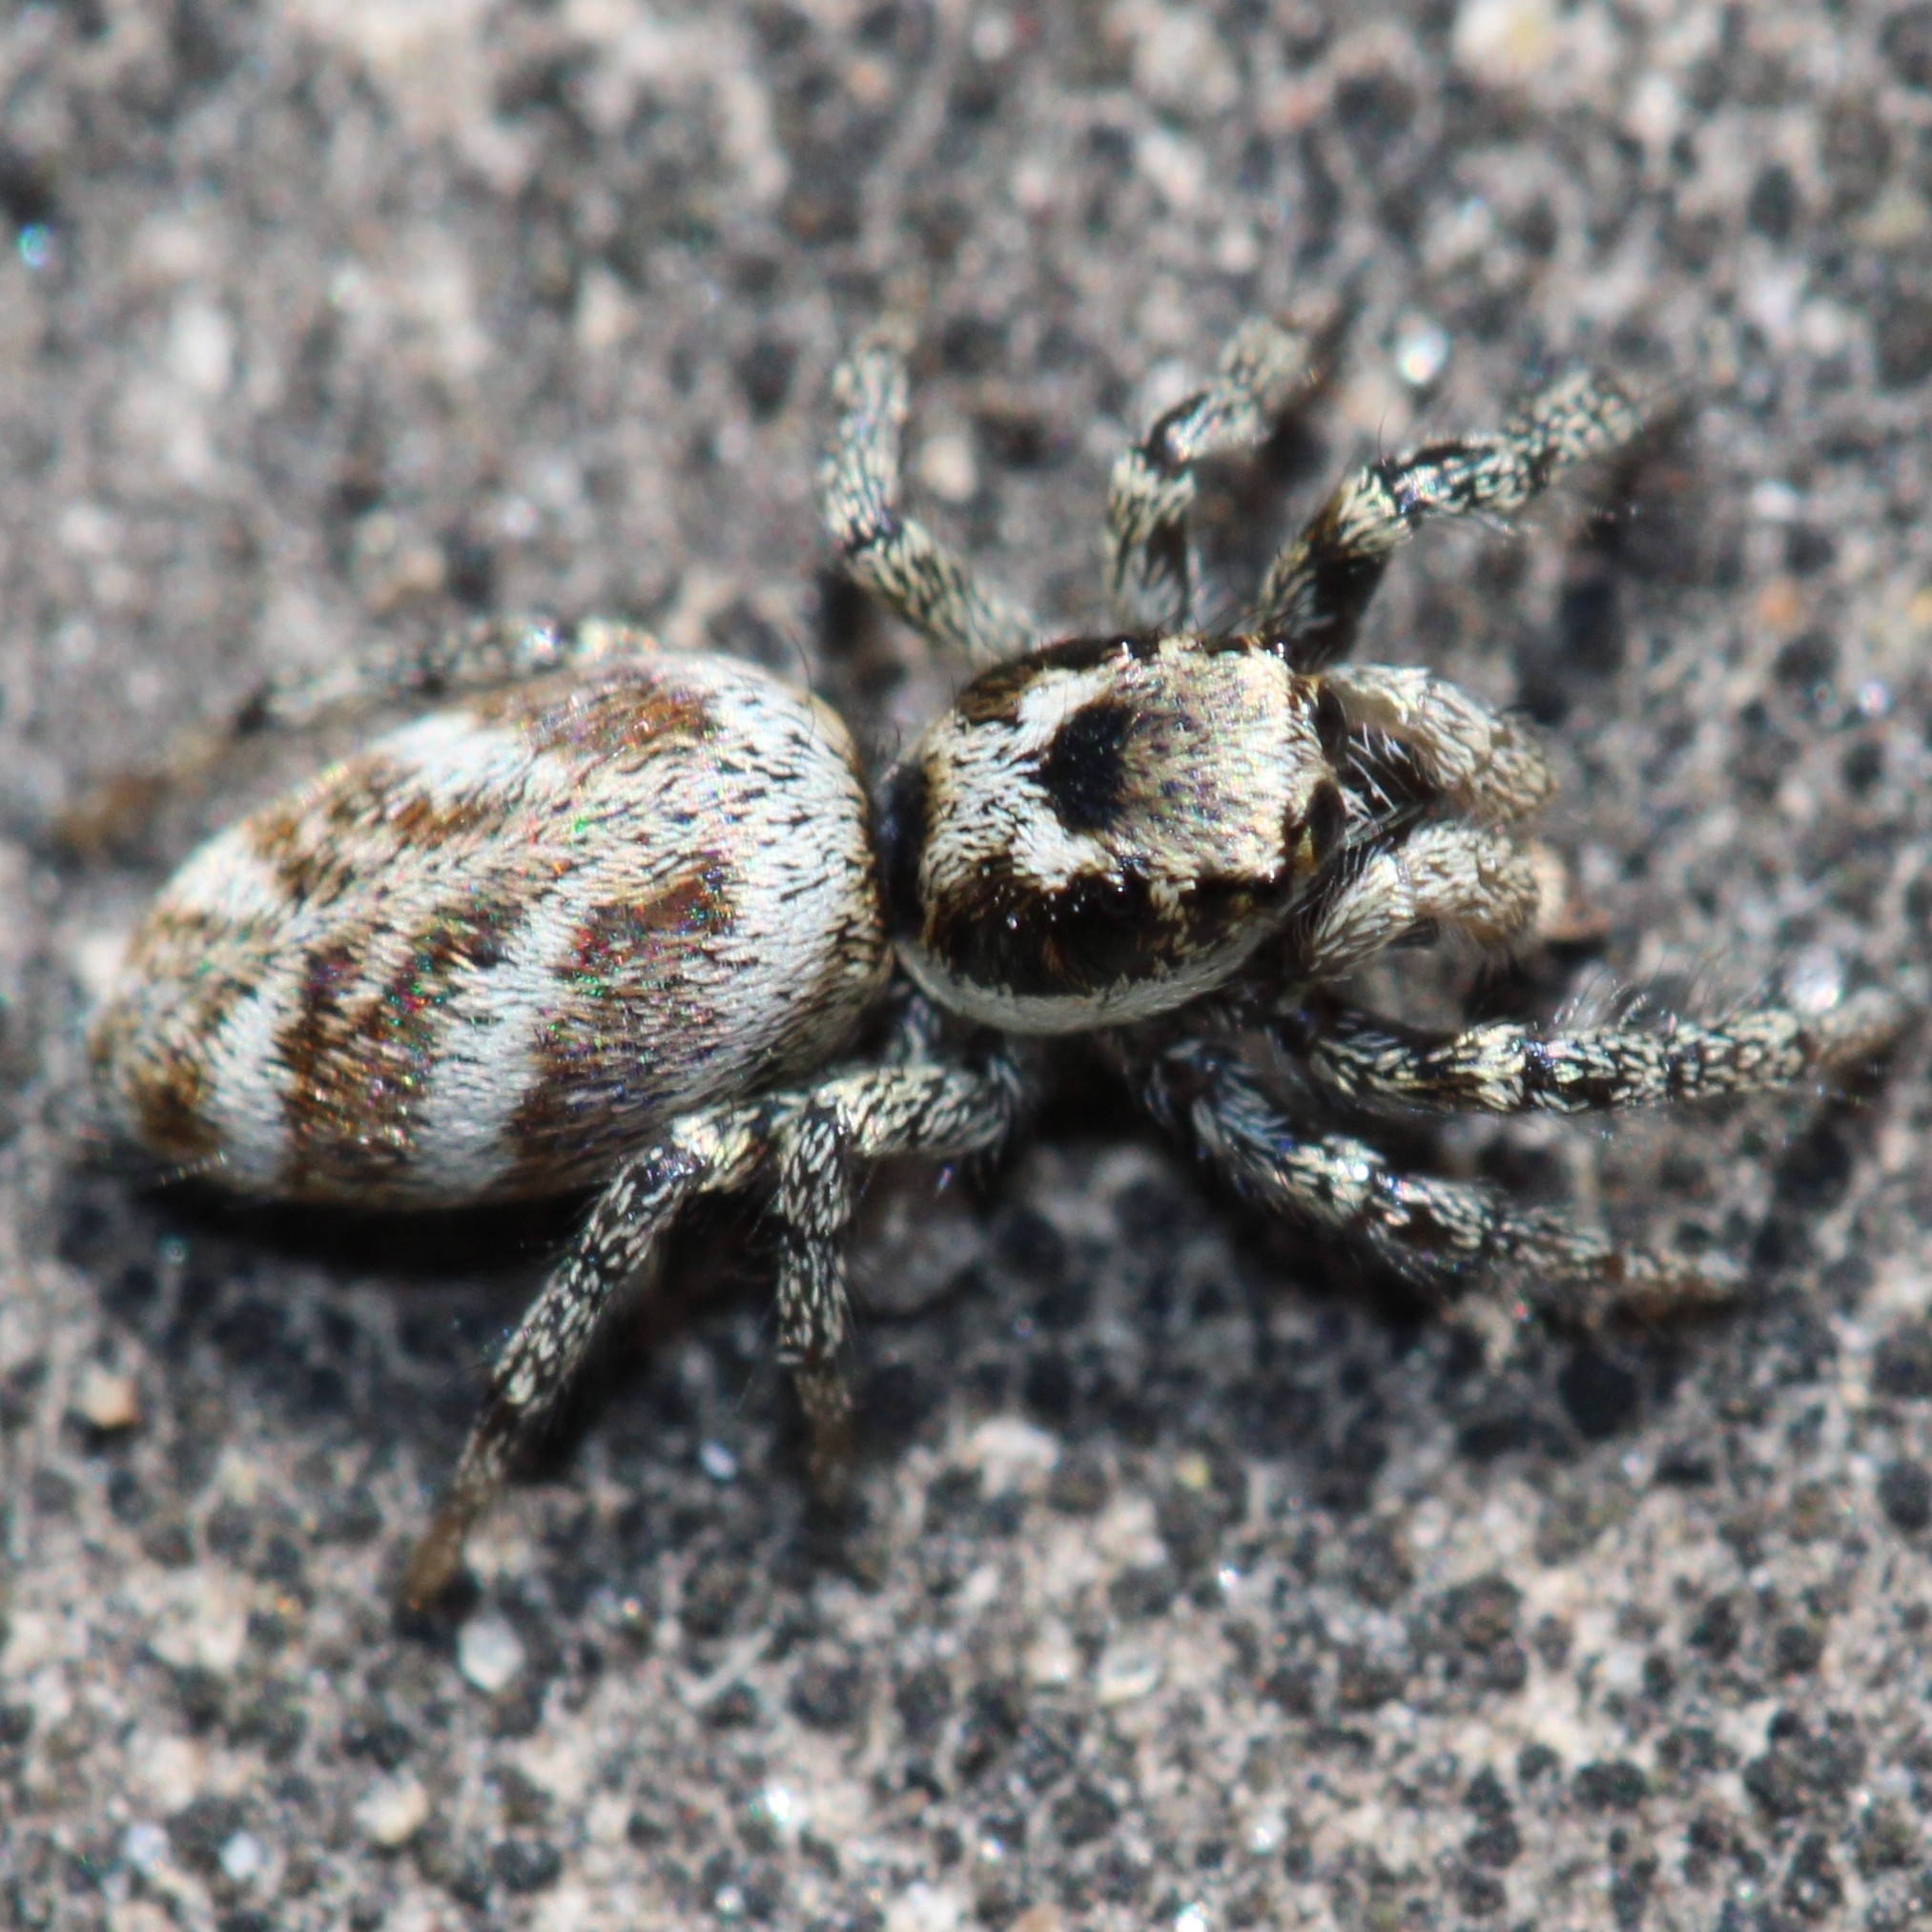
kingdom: Animalia
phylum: Arthropoda
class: Arachnida
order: Araneae
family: Salticidae
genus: Salticus
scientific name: Salticus scenicus
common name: Zebra jumper
